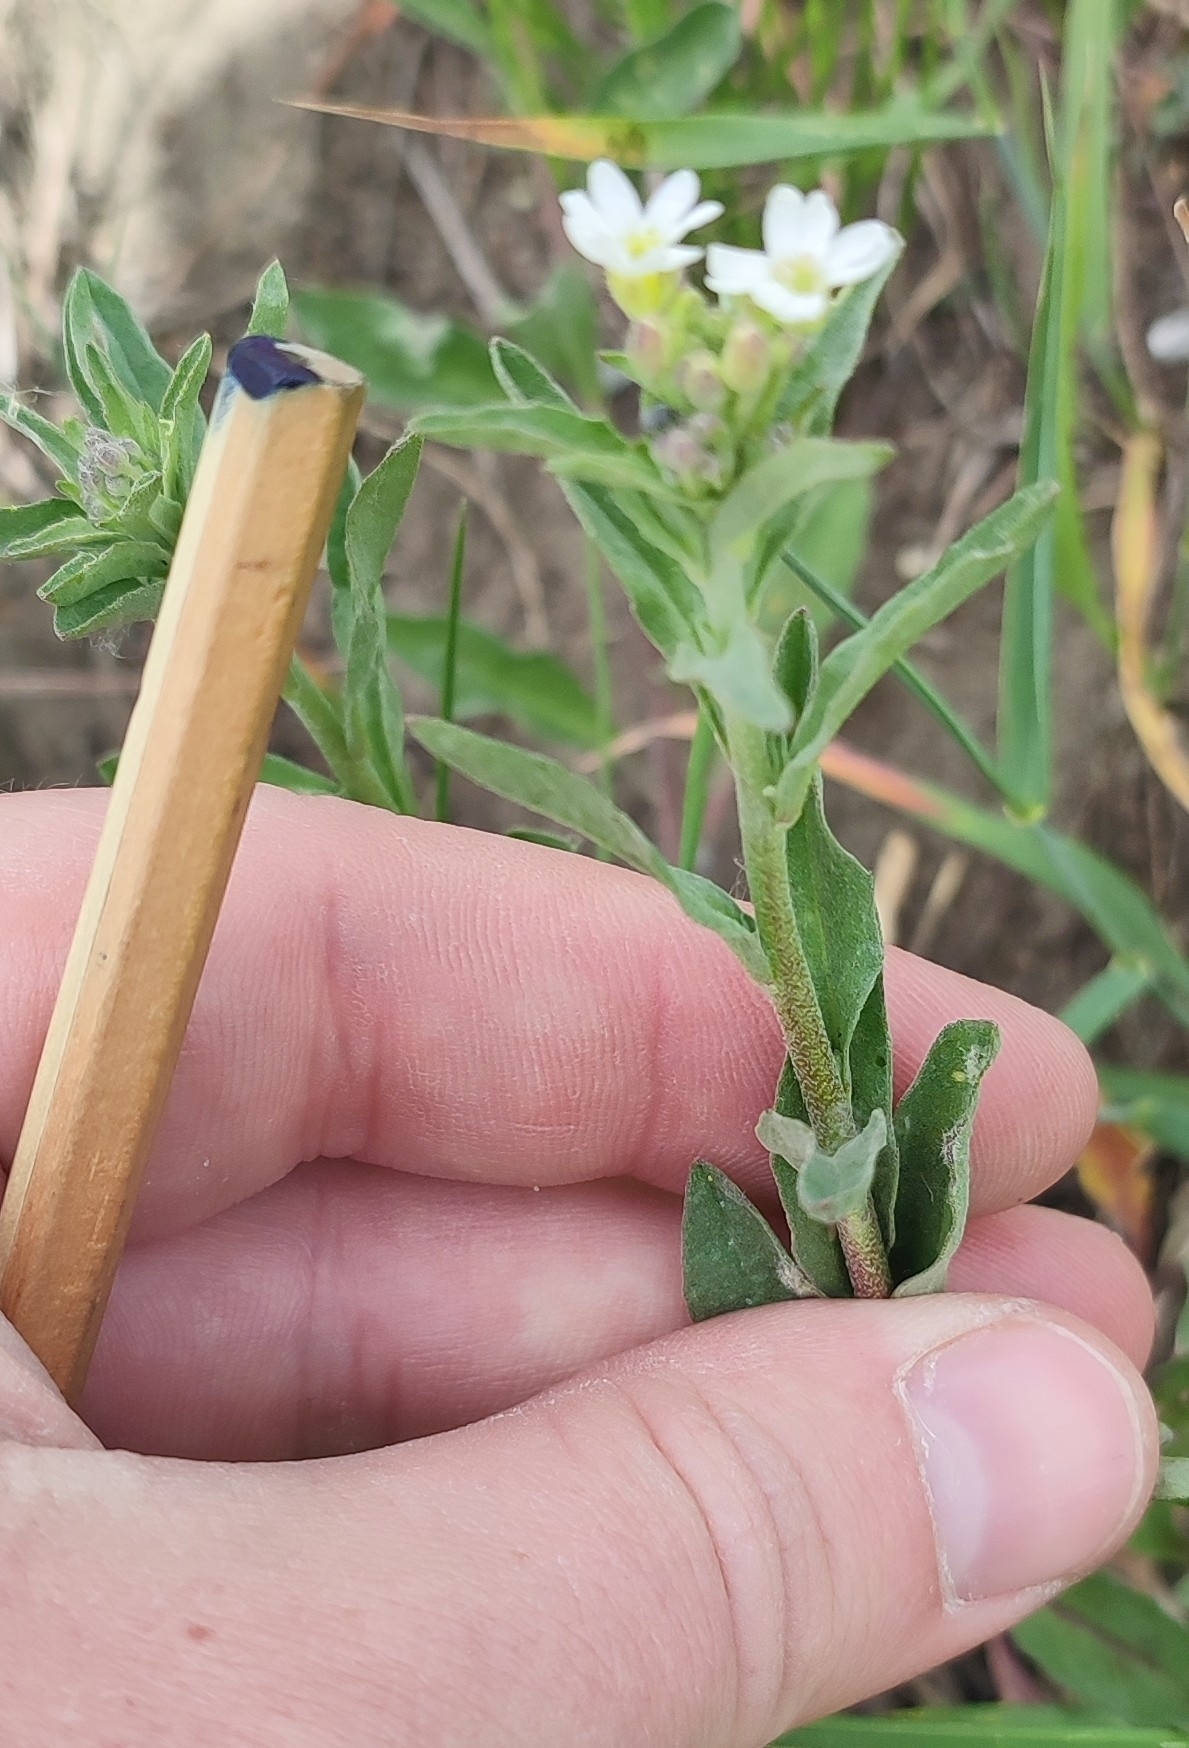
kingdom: Plantae
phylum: Tracheophyta
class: Magnoliopsida
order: Brassicales
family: Brassicaceae
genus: Berteroa
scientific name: Berteroa incana
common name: Hoary alison
